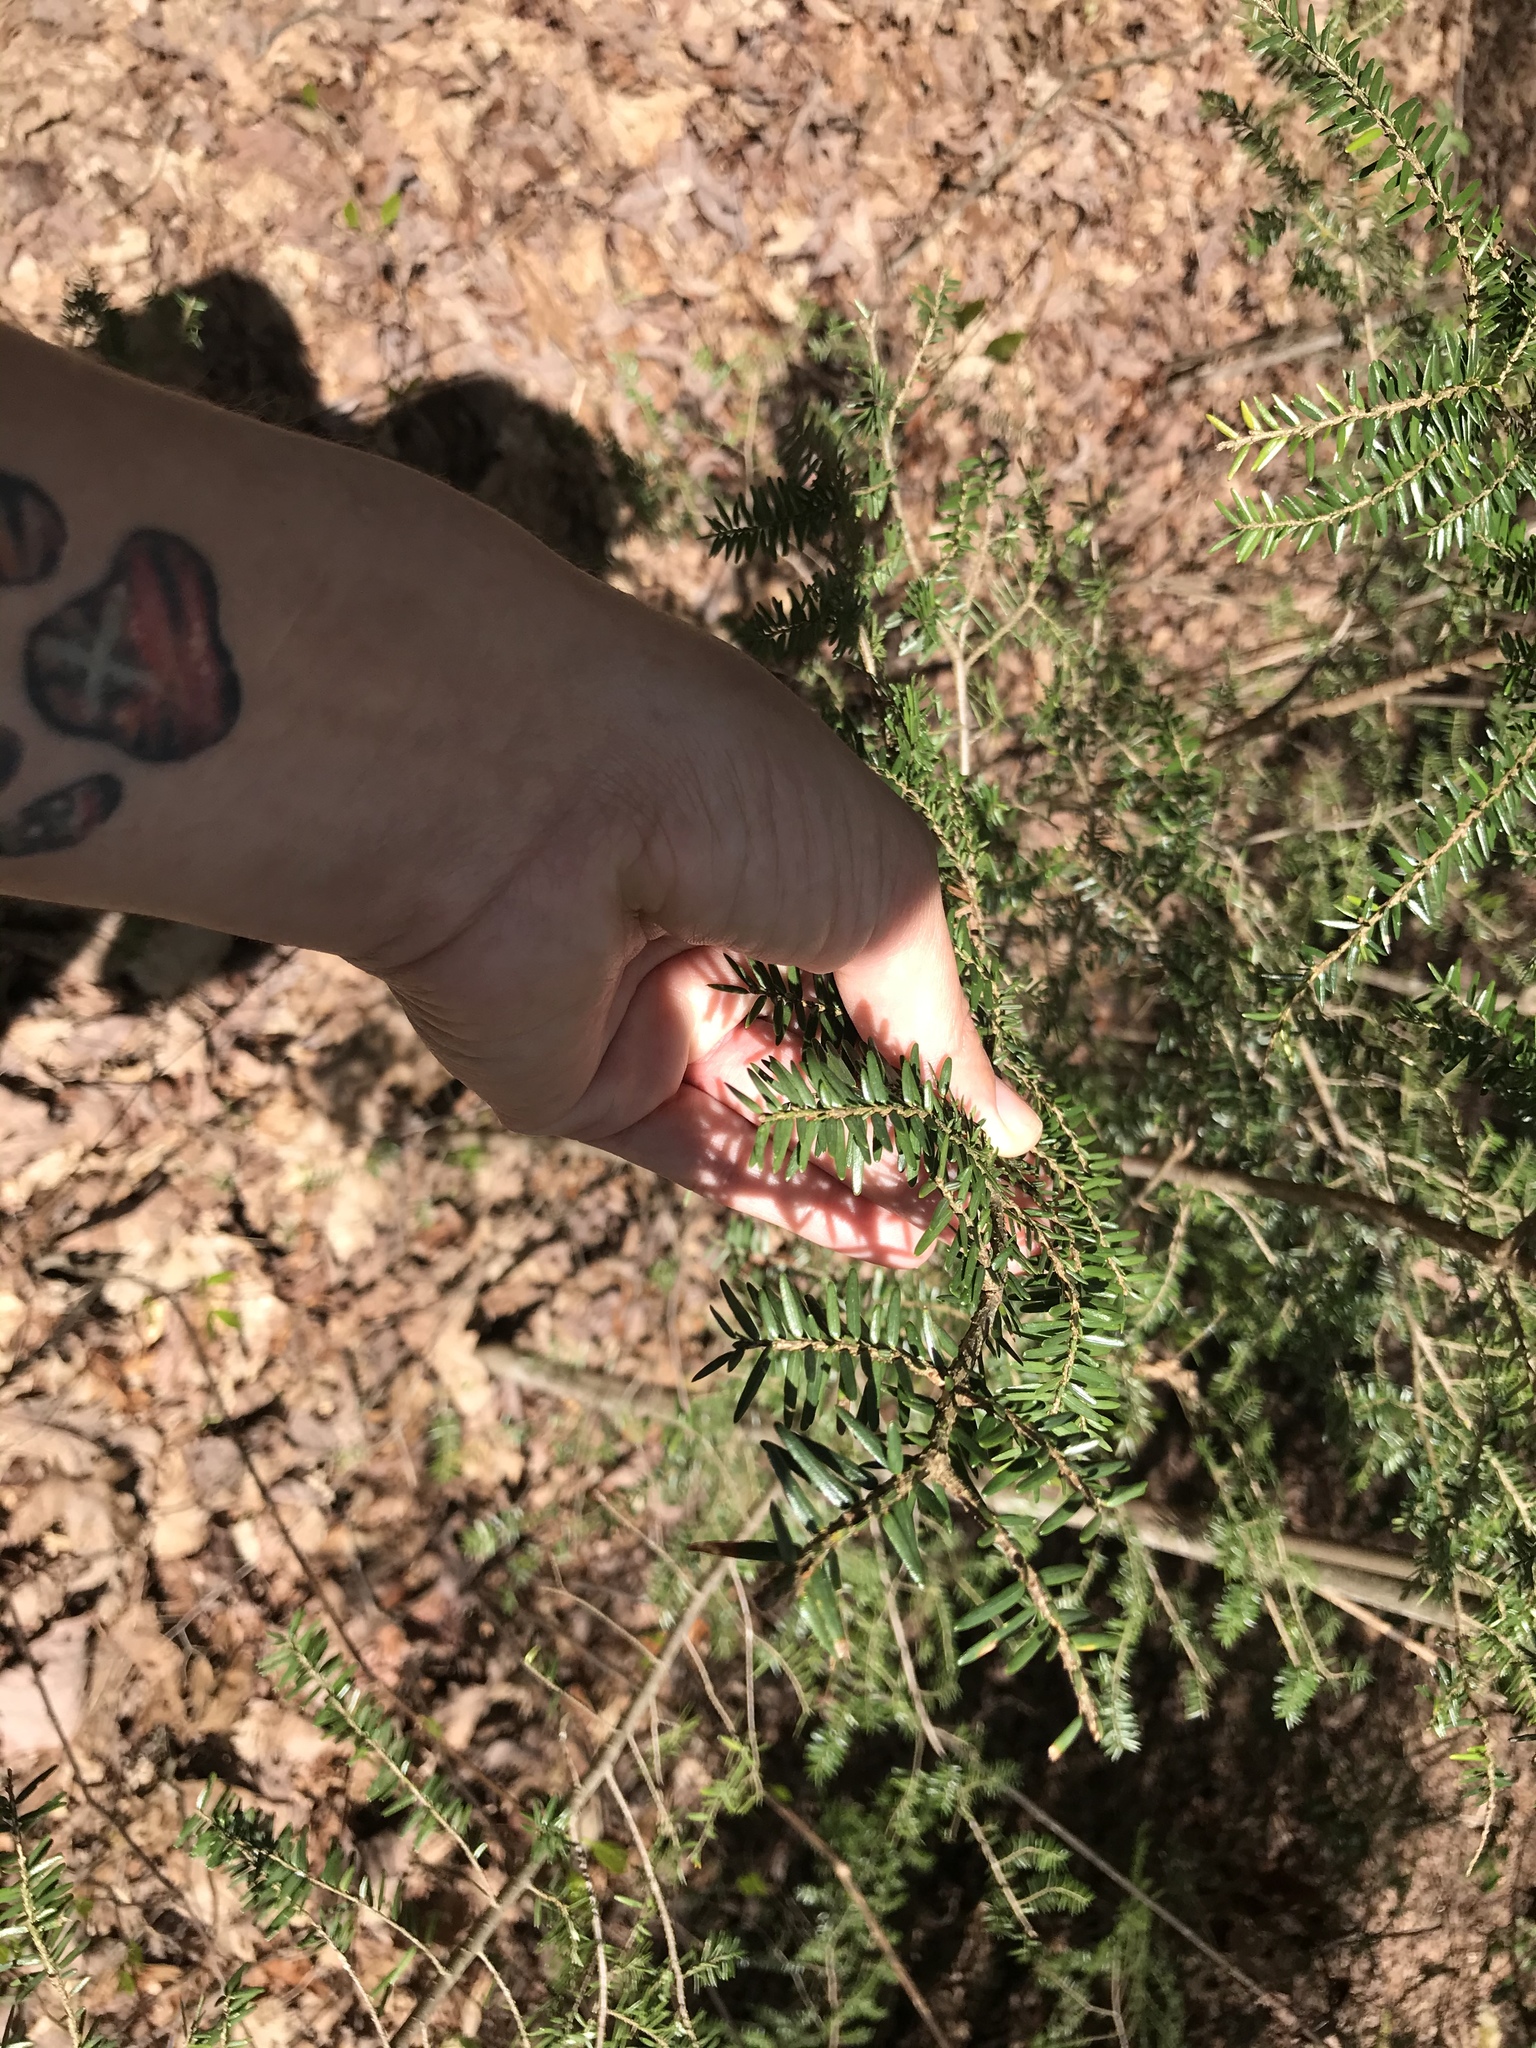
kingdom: Plantae
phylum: Tracheophyta
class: Pinopsida
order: Pinales
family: Pinaceae
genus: Tsuga
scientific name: Tsuga canadensis
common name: Eastern hemlock
